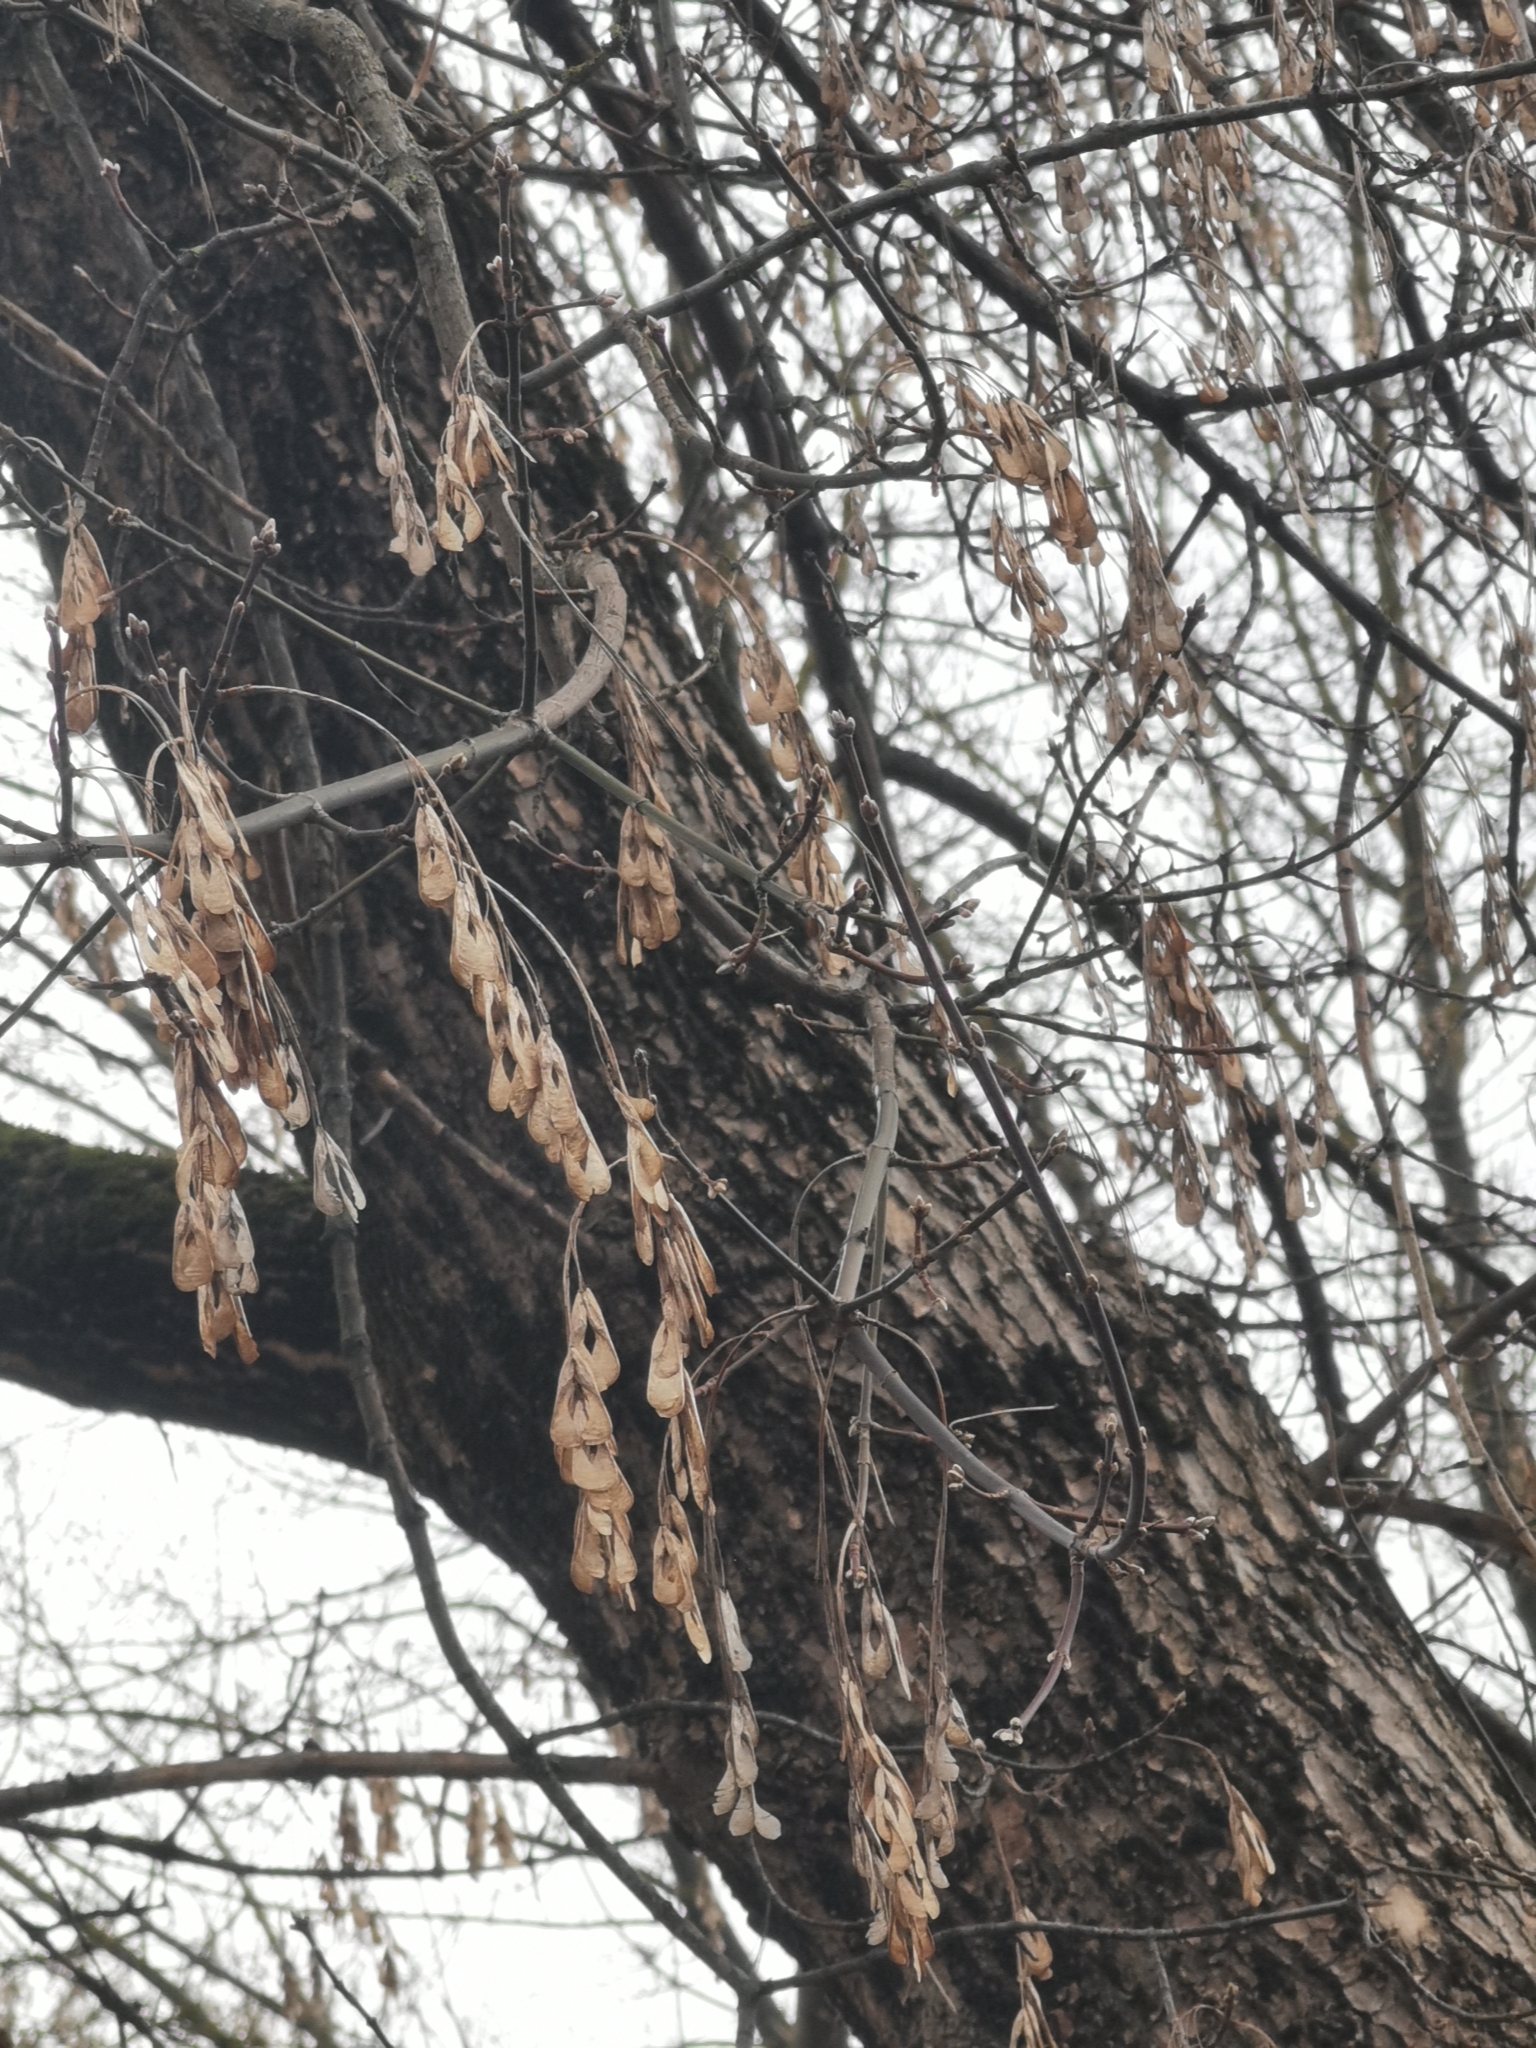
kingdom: Plantae
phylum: Tracheophyta
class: Magnoliopsida
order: Sapindales
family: Sapindaceae
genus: Acer
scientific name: Acer negundo
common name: Ashleaf maple
